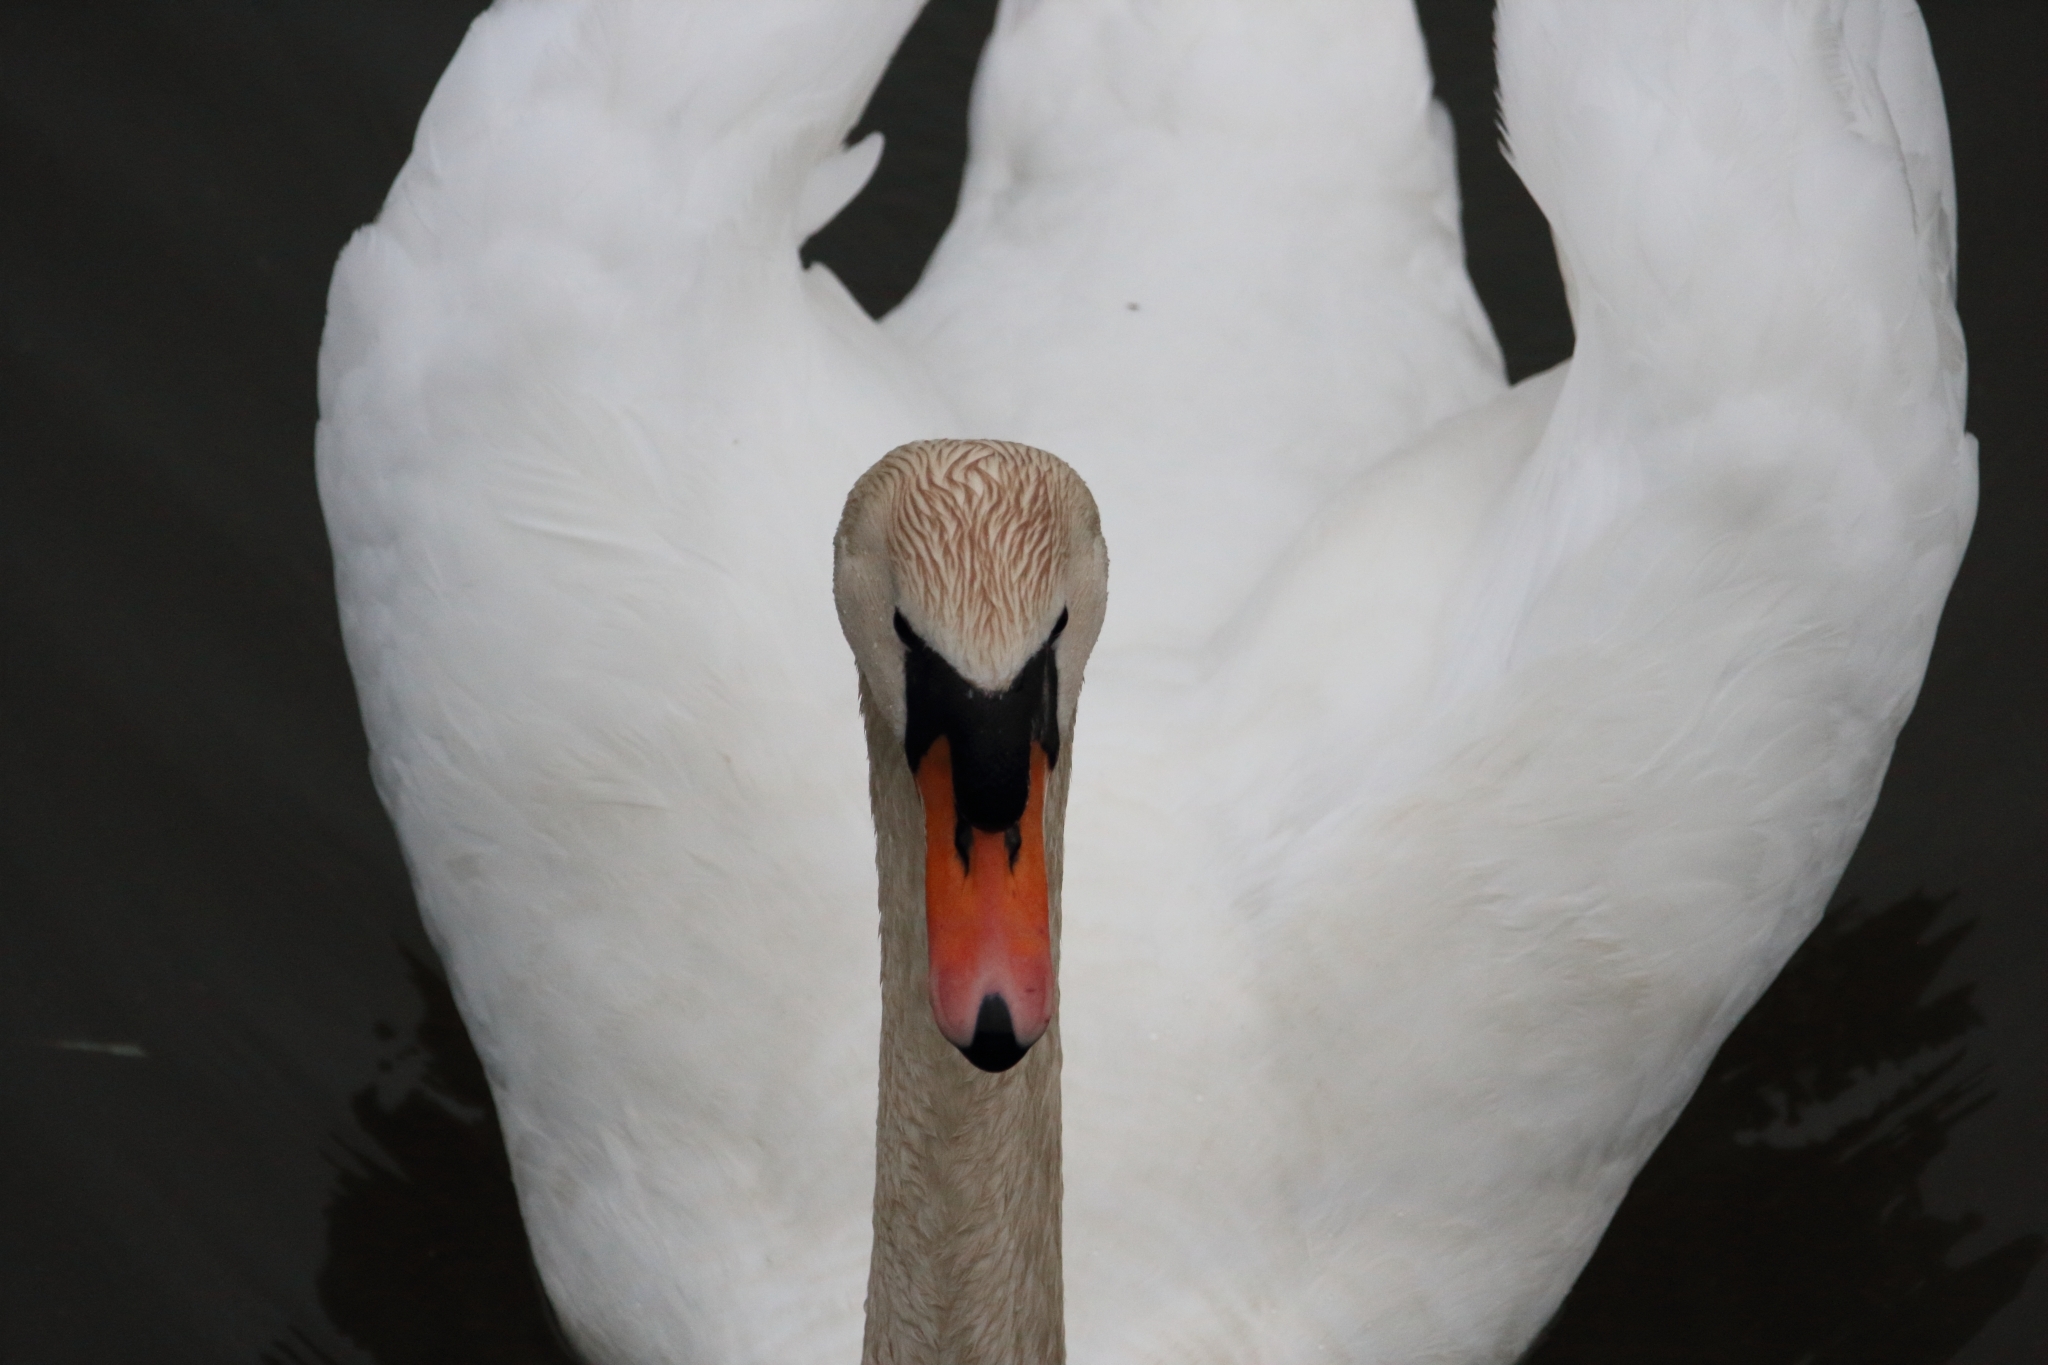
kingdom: Animalia
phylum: Chordata
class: Aves
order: Anseriformes
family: Anatidae
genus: Cygnus
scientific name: Cygnus olor
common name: Mute swan
